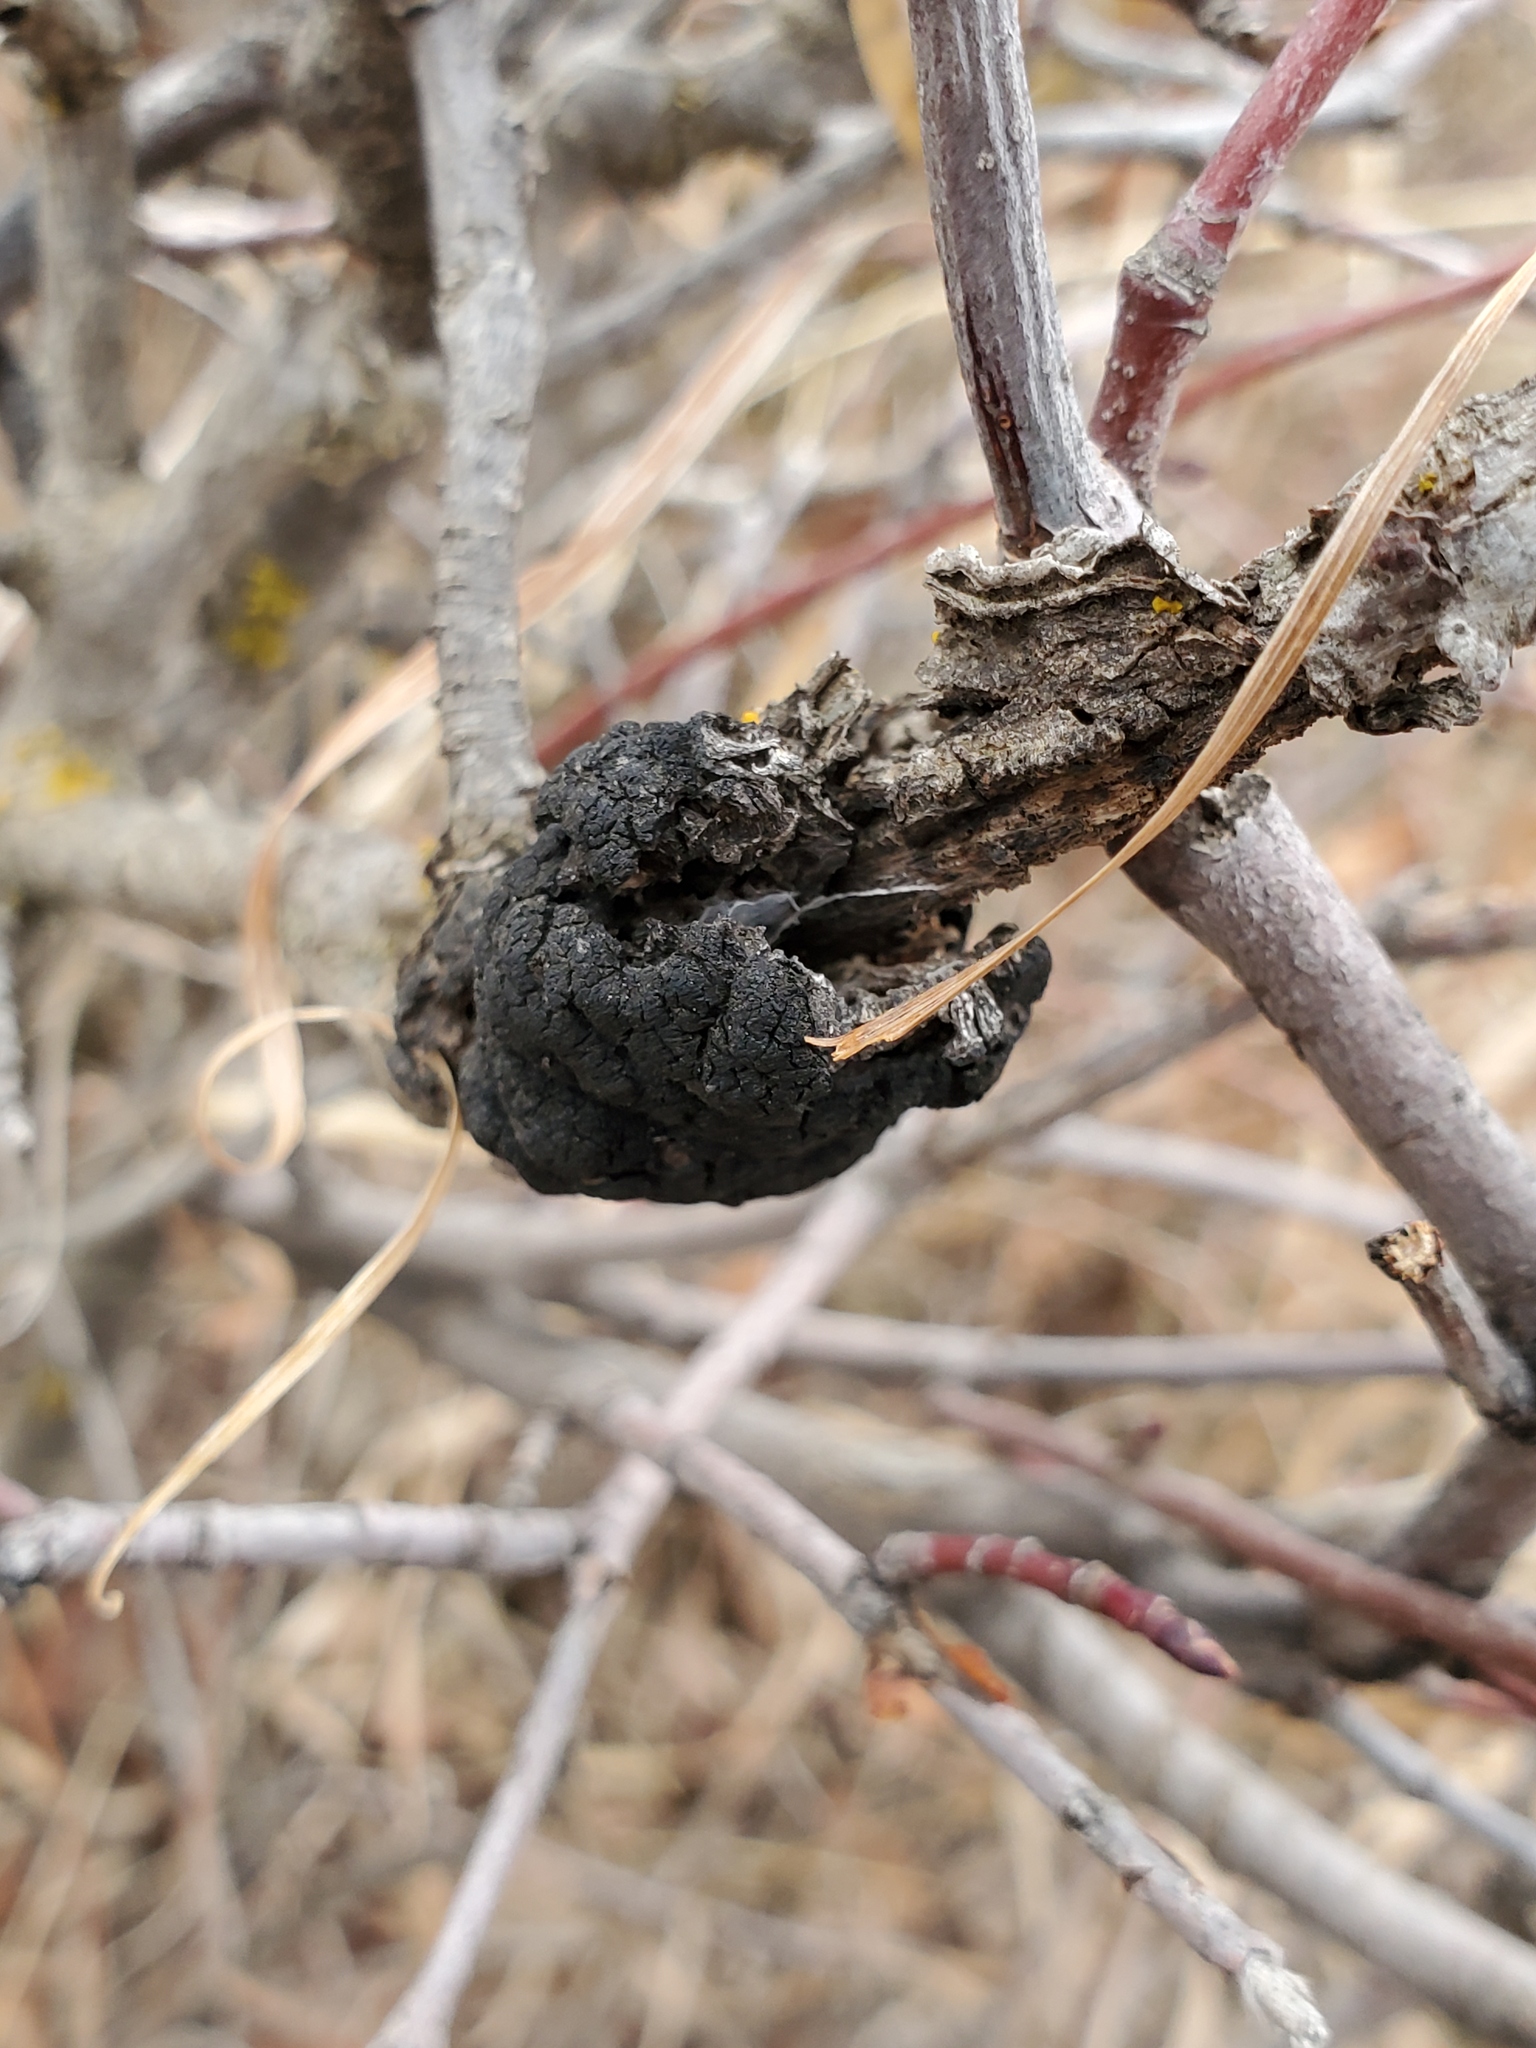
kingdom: Fungi
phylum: Ascomycota
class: Dothideomycetes
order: Venturiales
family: Venturiaceae
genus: Apiosporina
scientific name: Apiosporina morbosa
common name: Black knot
